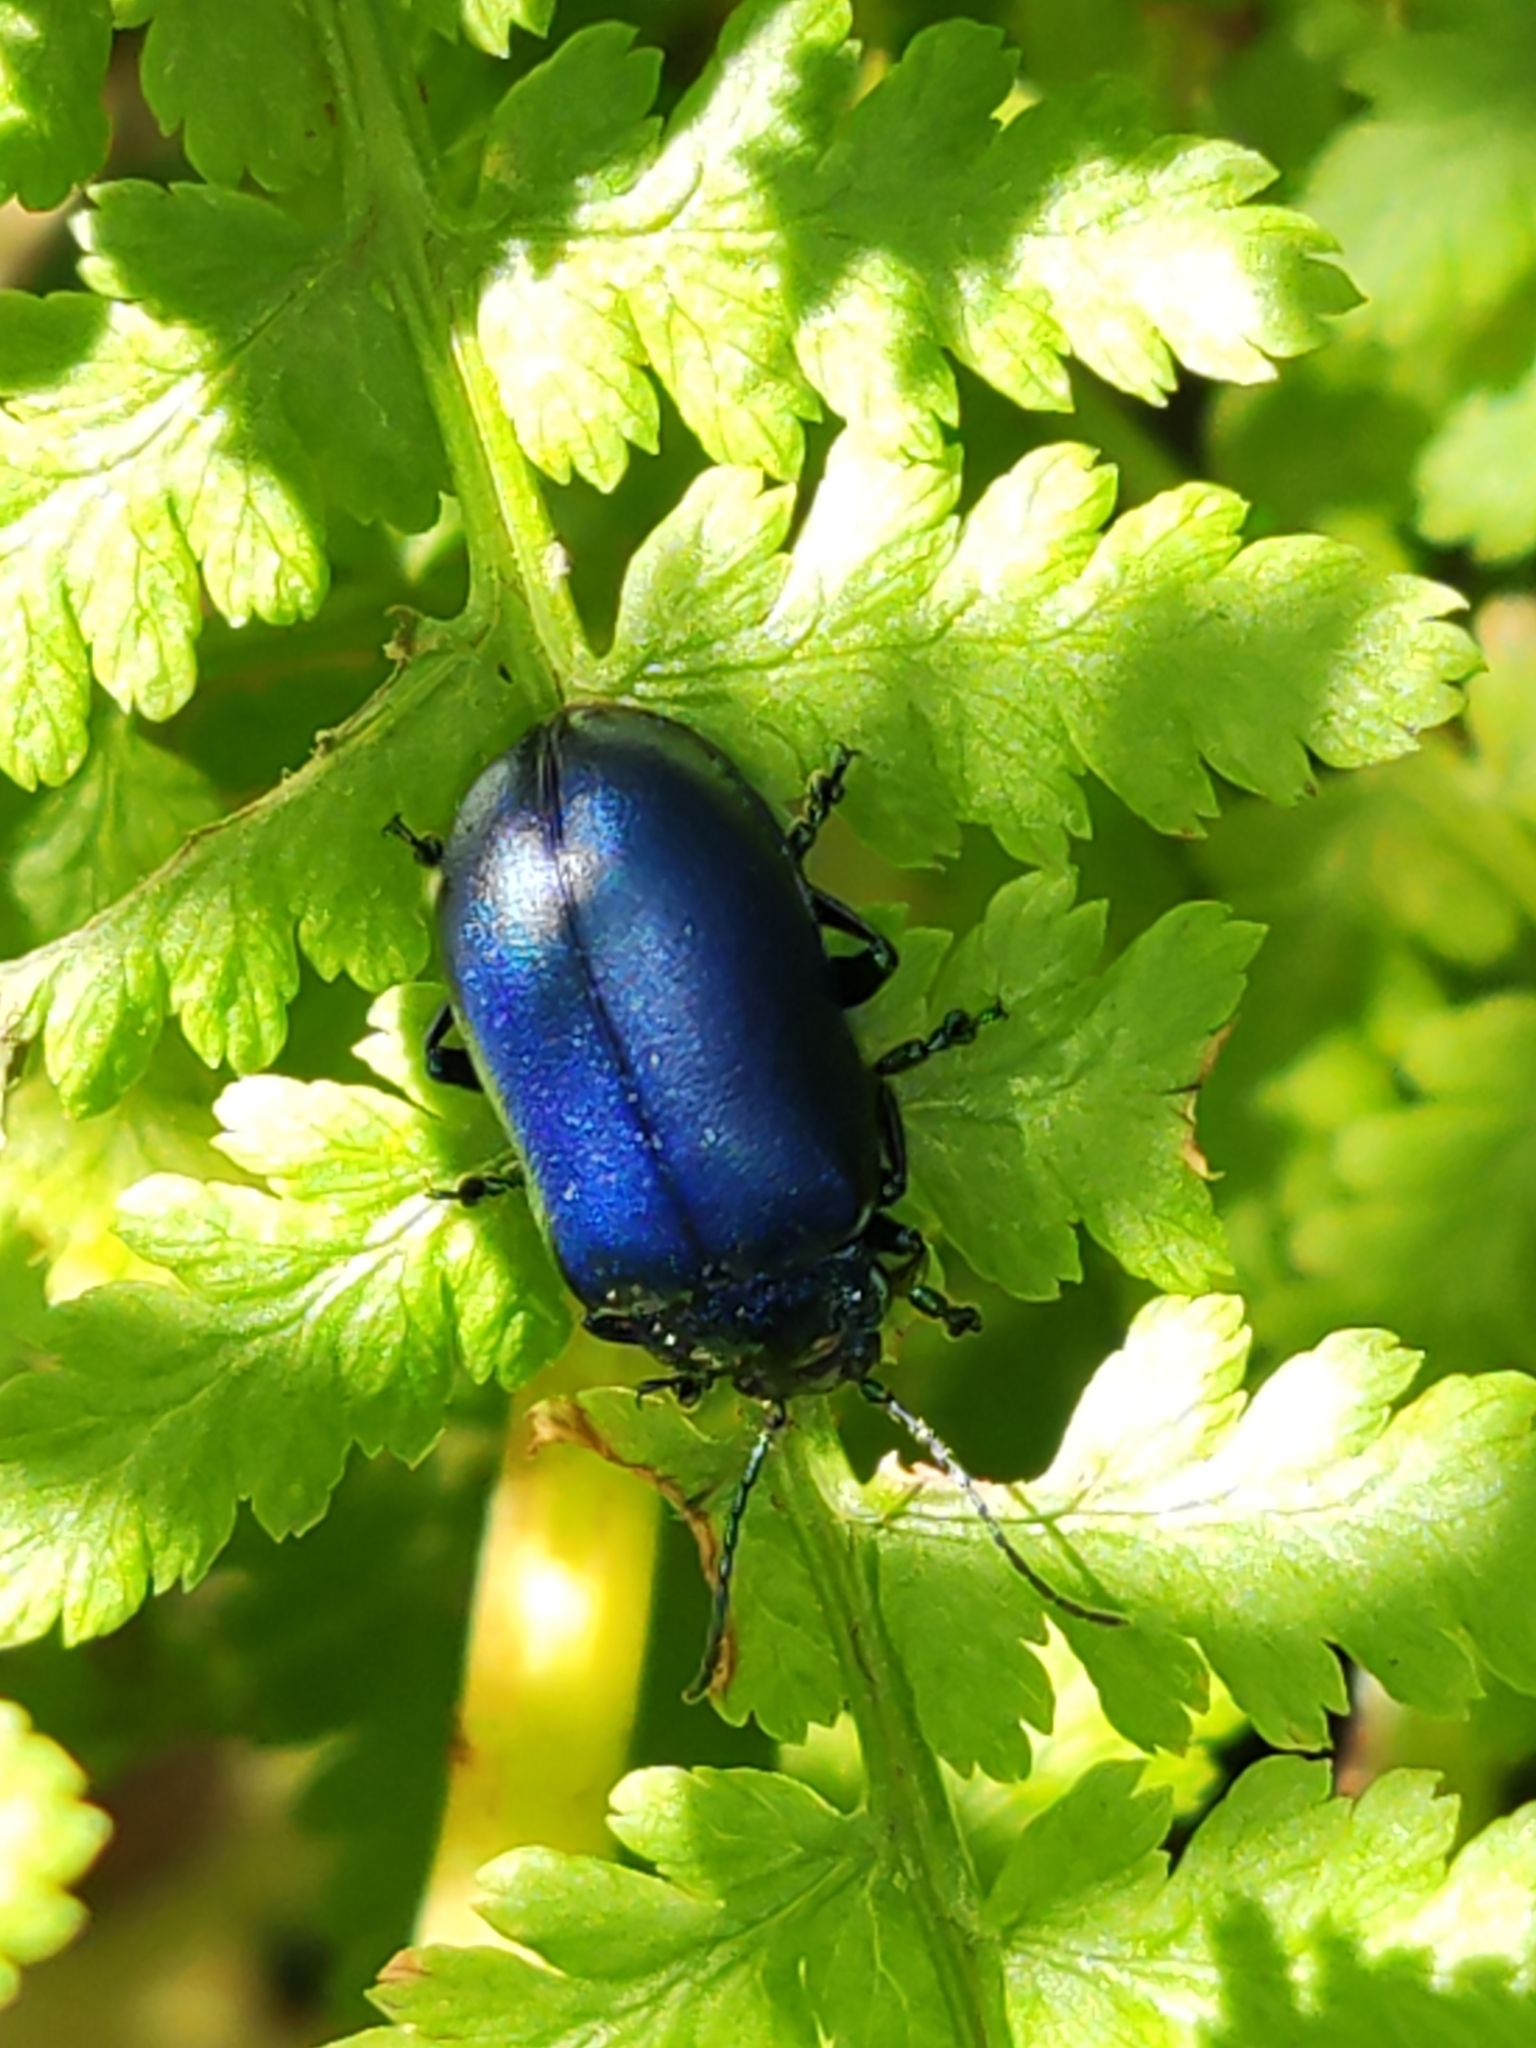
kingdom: Animalia
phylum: Arthropoda
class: Insecta
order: Coleoptera
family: Chrysomelidae
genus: Oreina
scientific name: Oreina cacaliae
